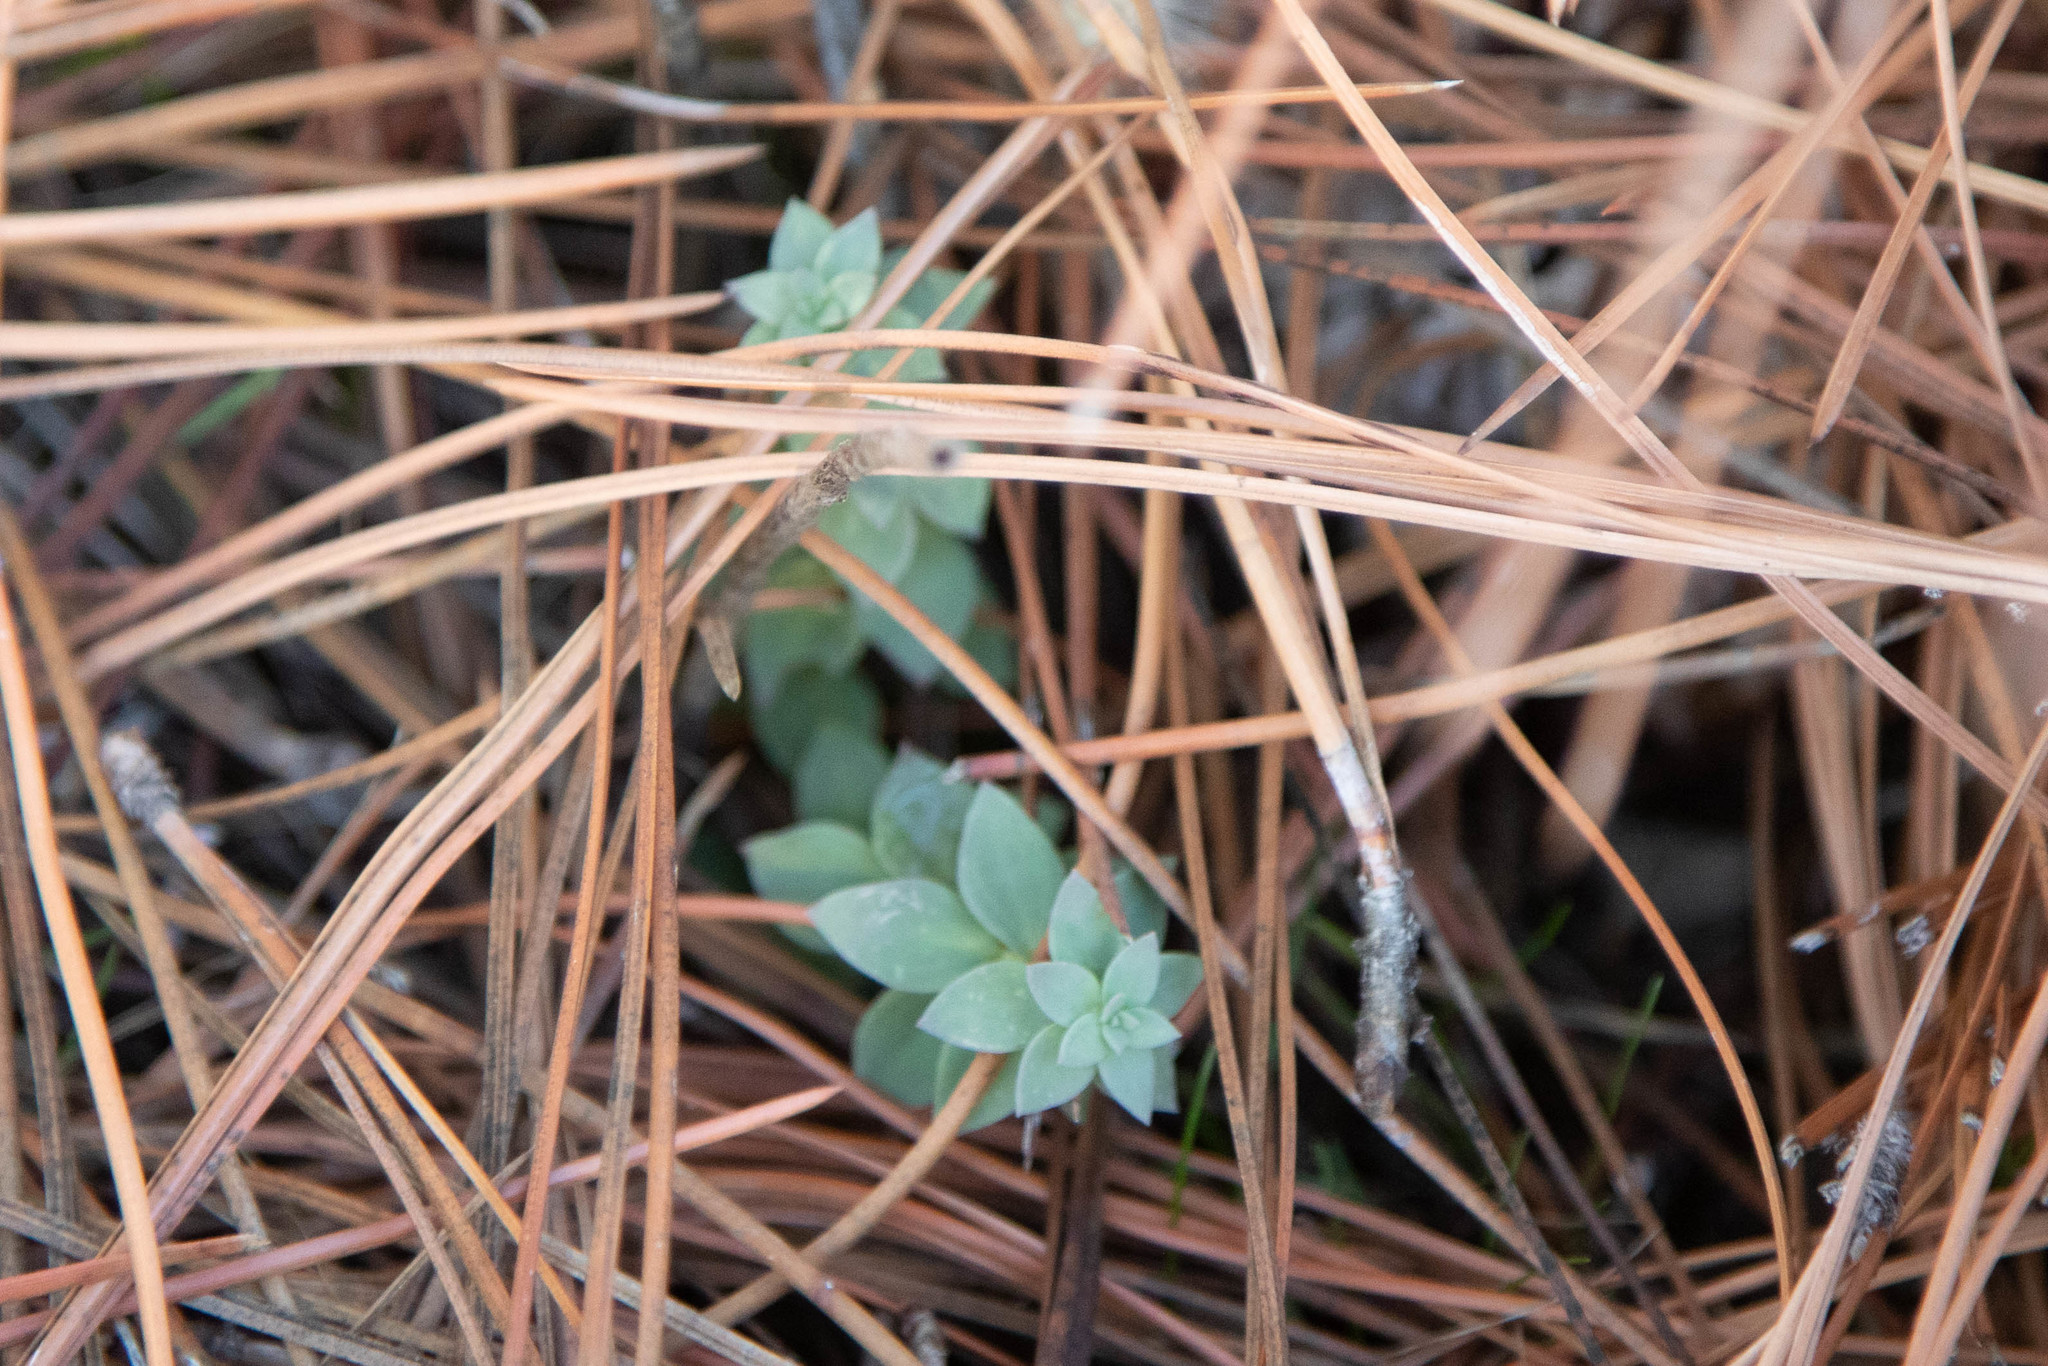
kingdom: Plantae
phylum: Tracheophyta
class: Magnoliopsida
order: Lamiales
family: Plantaginaceae
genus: Linaria
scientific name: Linaria dalmatica
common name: Dalmatian toadflax
